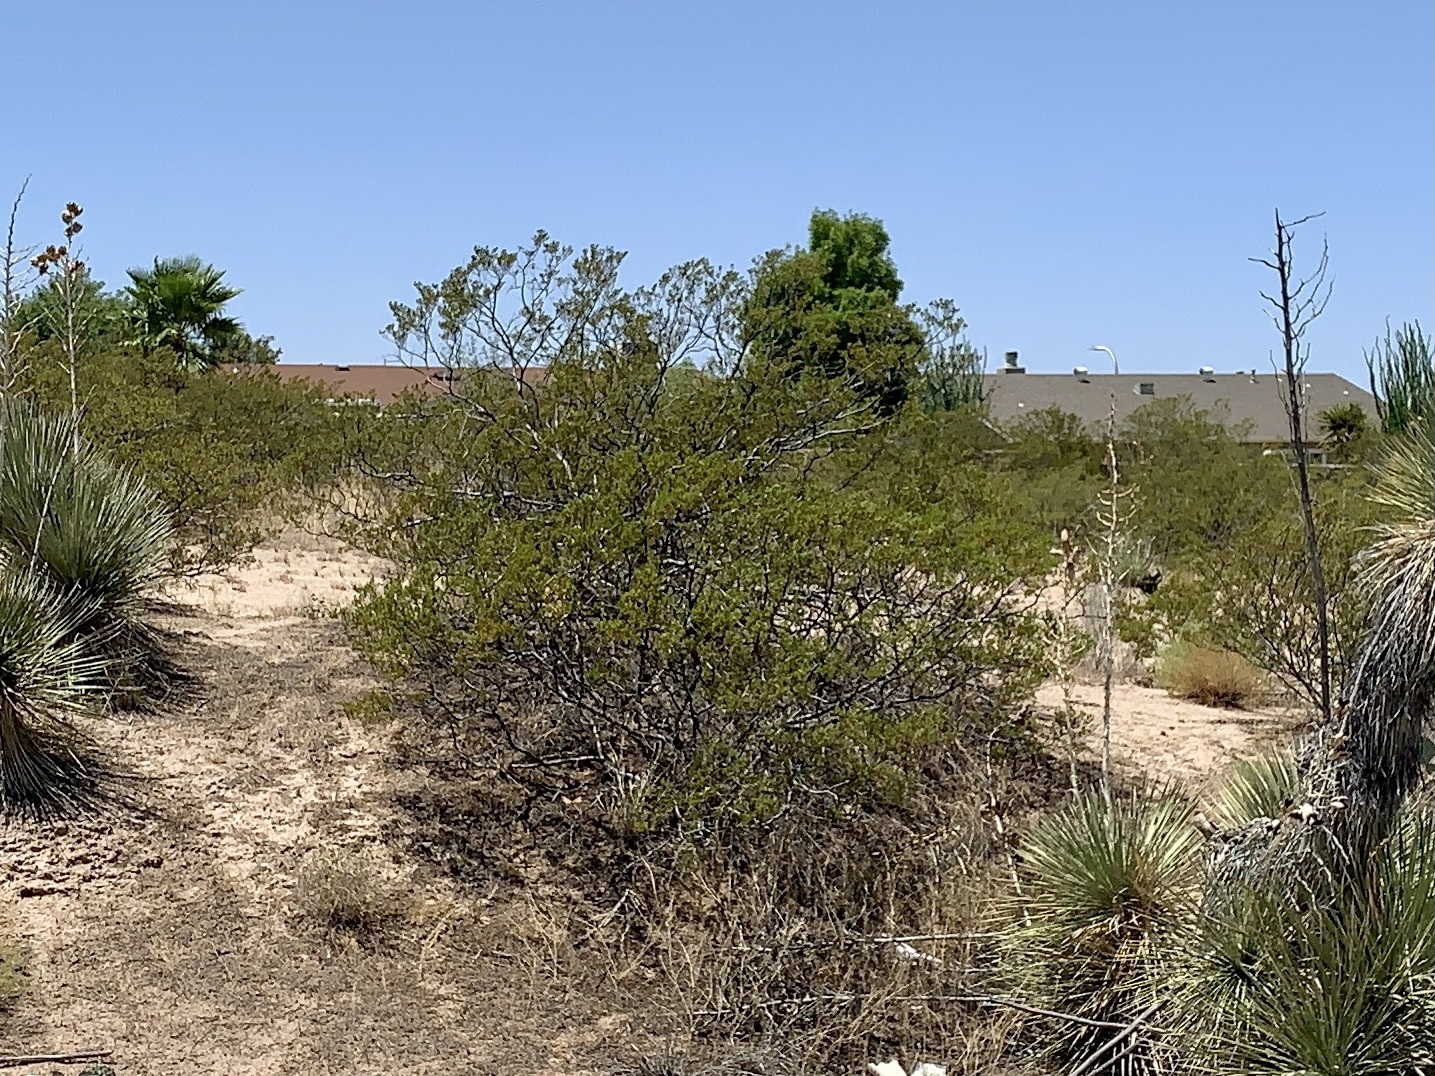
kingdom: Plantae
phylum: Tracheophyta
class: Magnoliopsida
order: Zygophyllales
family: Zygophyllaceae
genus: Larrea
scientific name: Larrea tridentata
